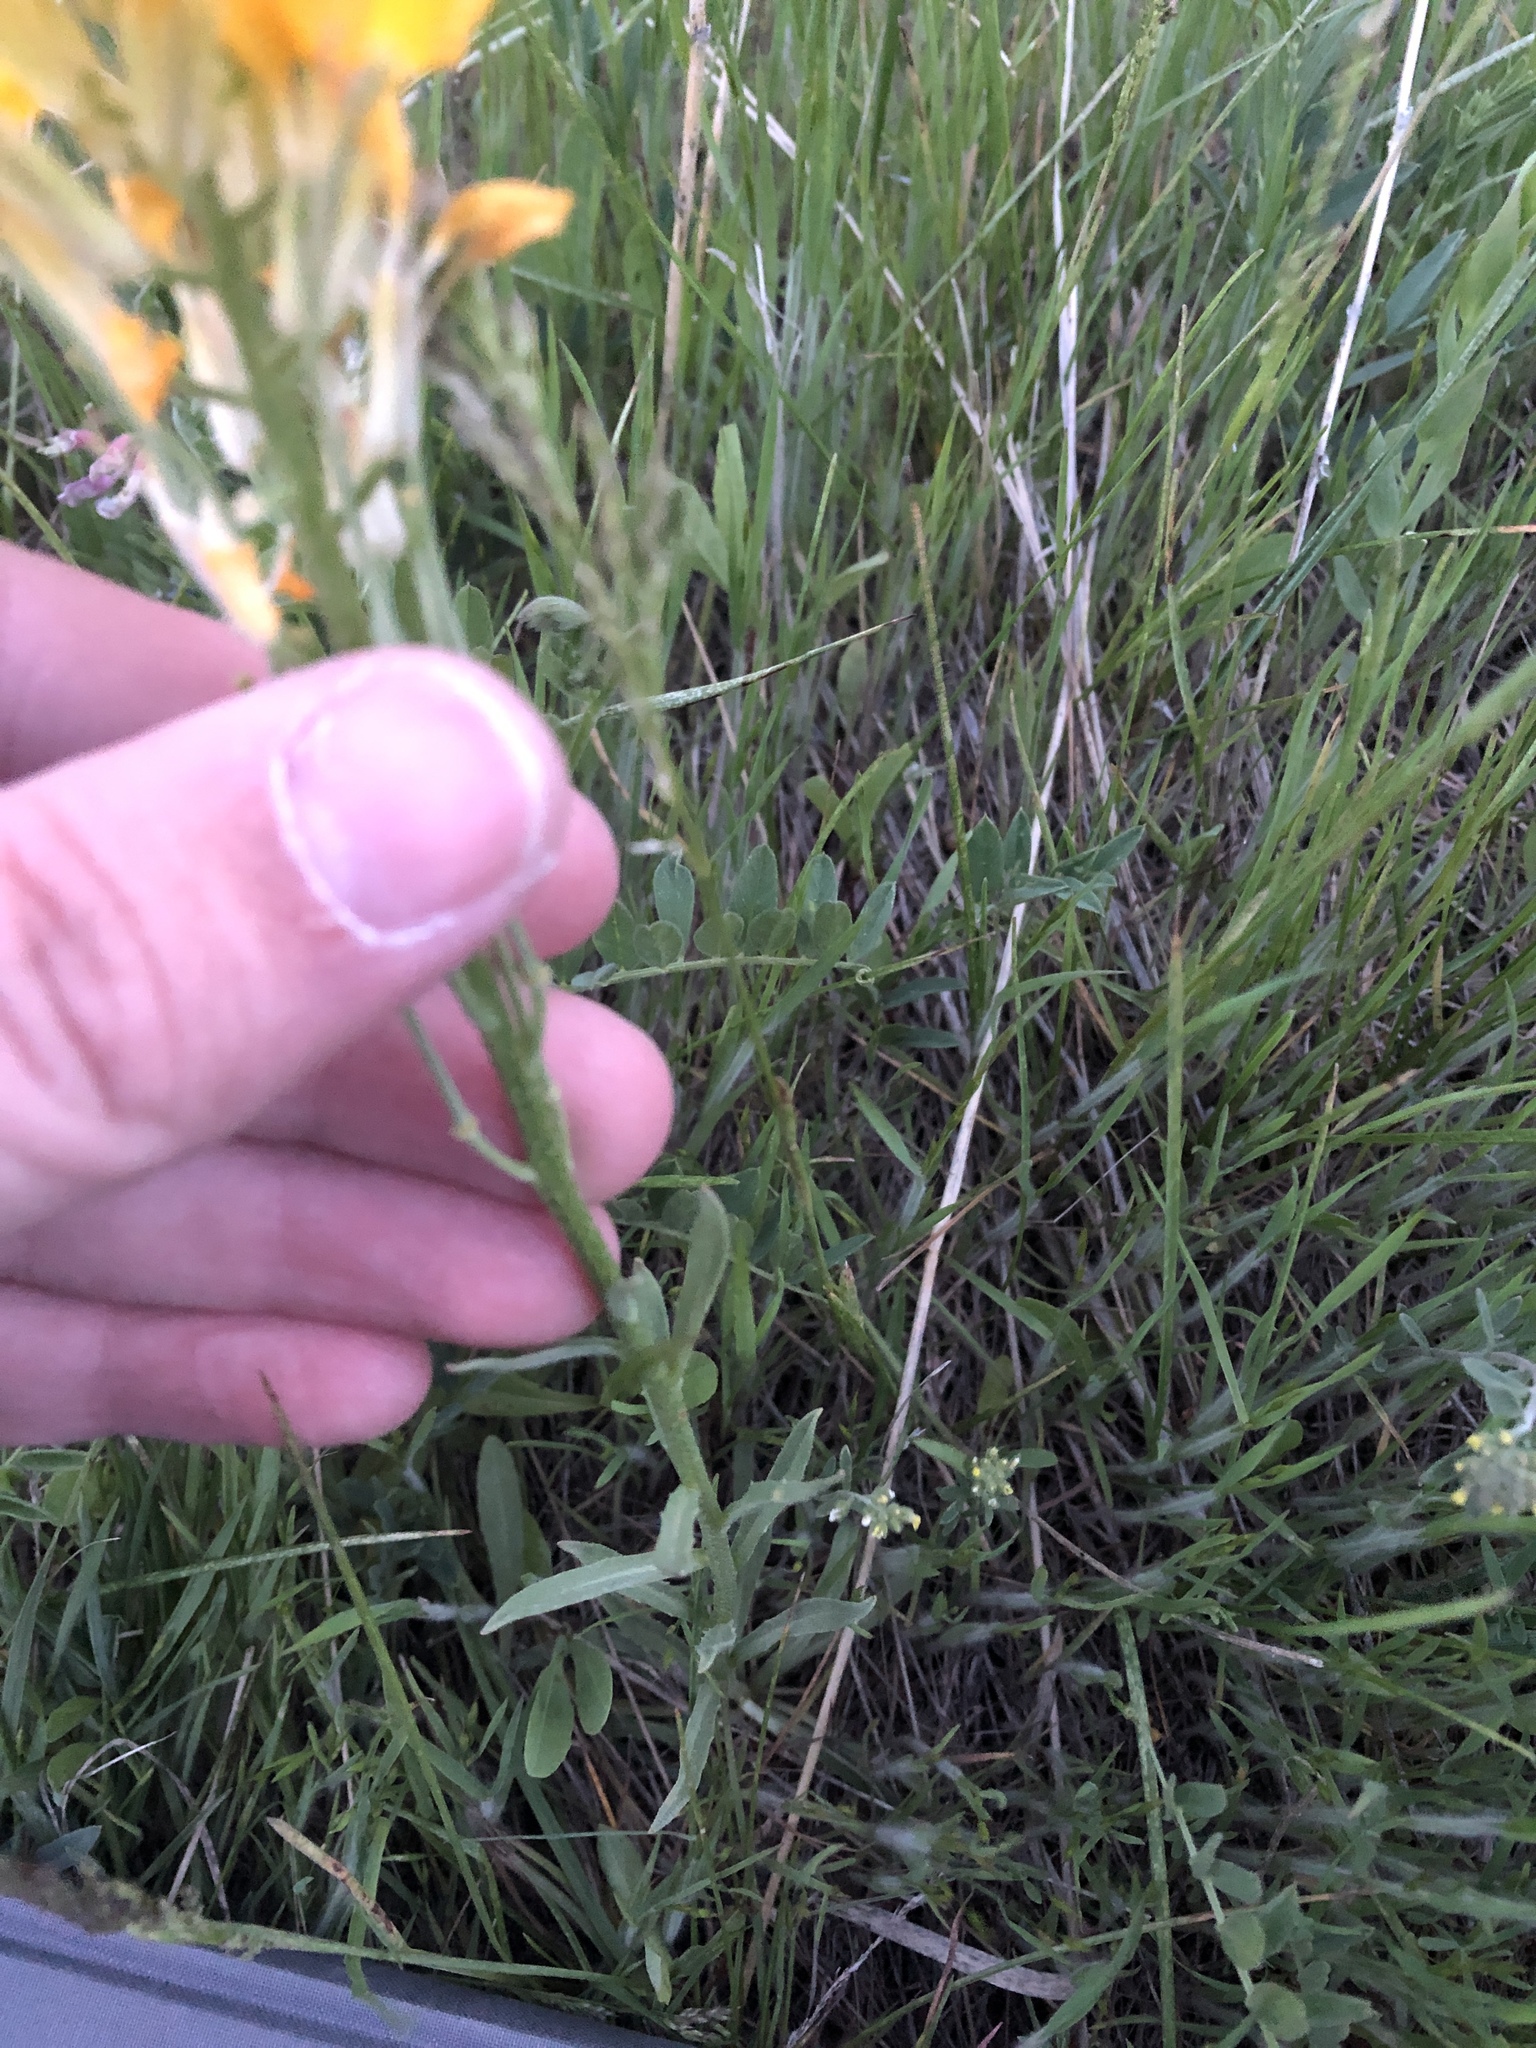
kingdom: Plantae
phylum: Tracheophyta
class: Magnoliopsida
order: Brassicales
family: Brassicaceae
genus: Erysimum
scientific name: Erysimum capitatum
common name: Western wallflower
